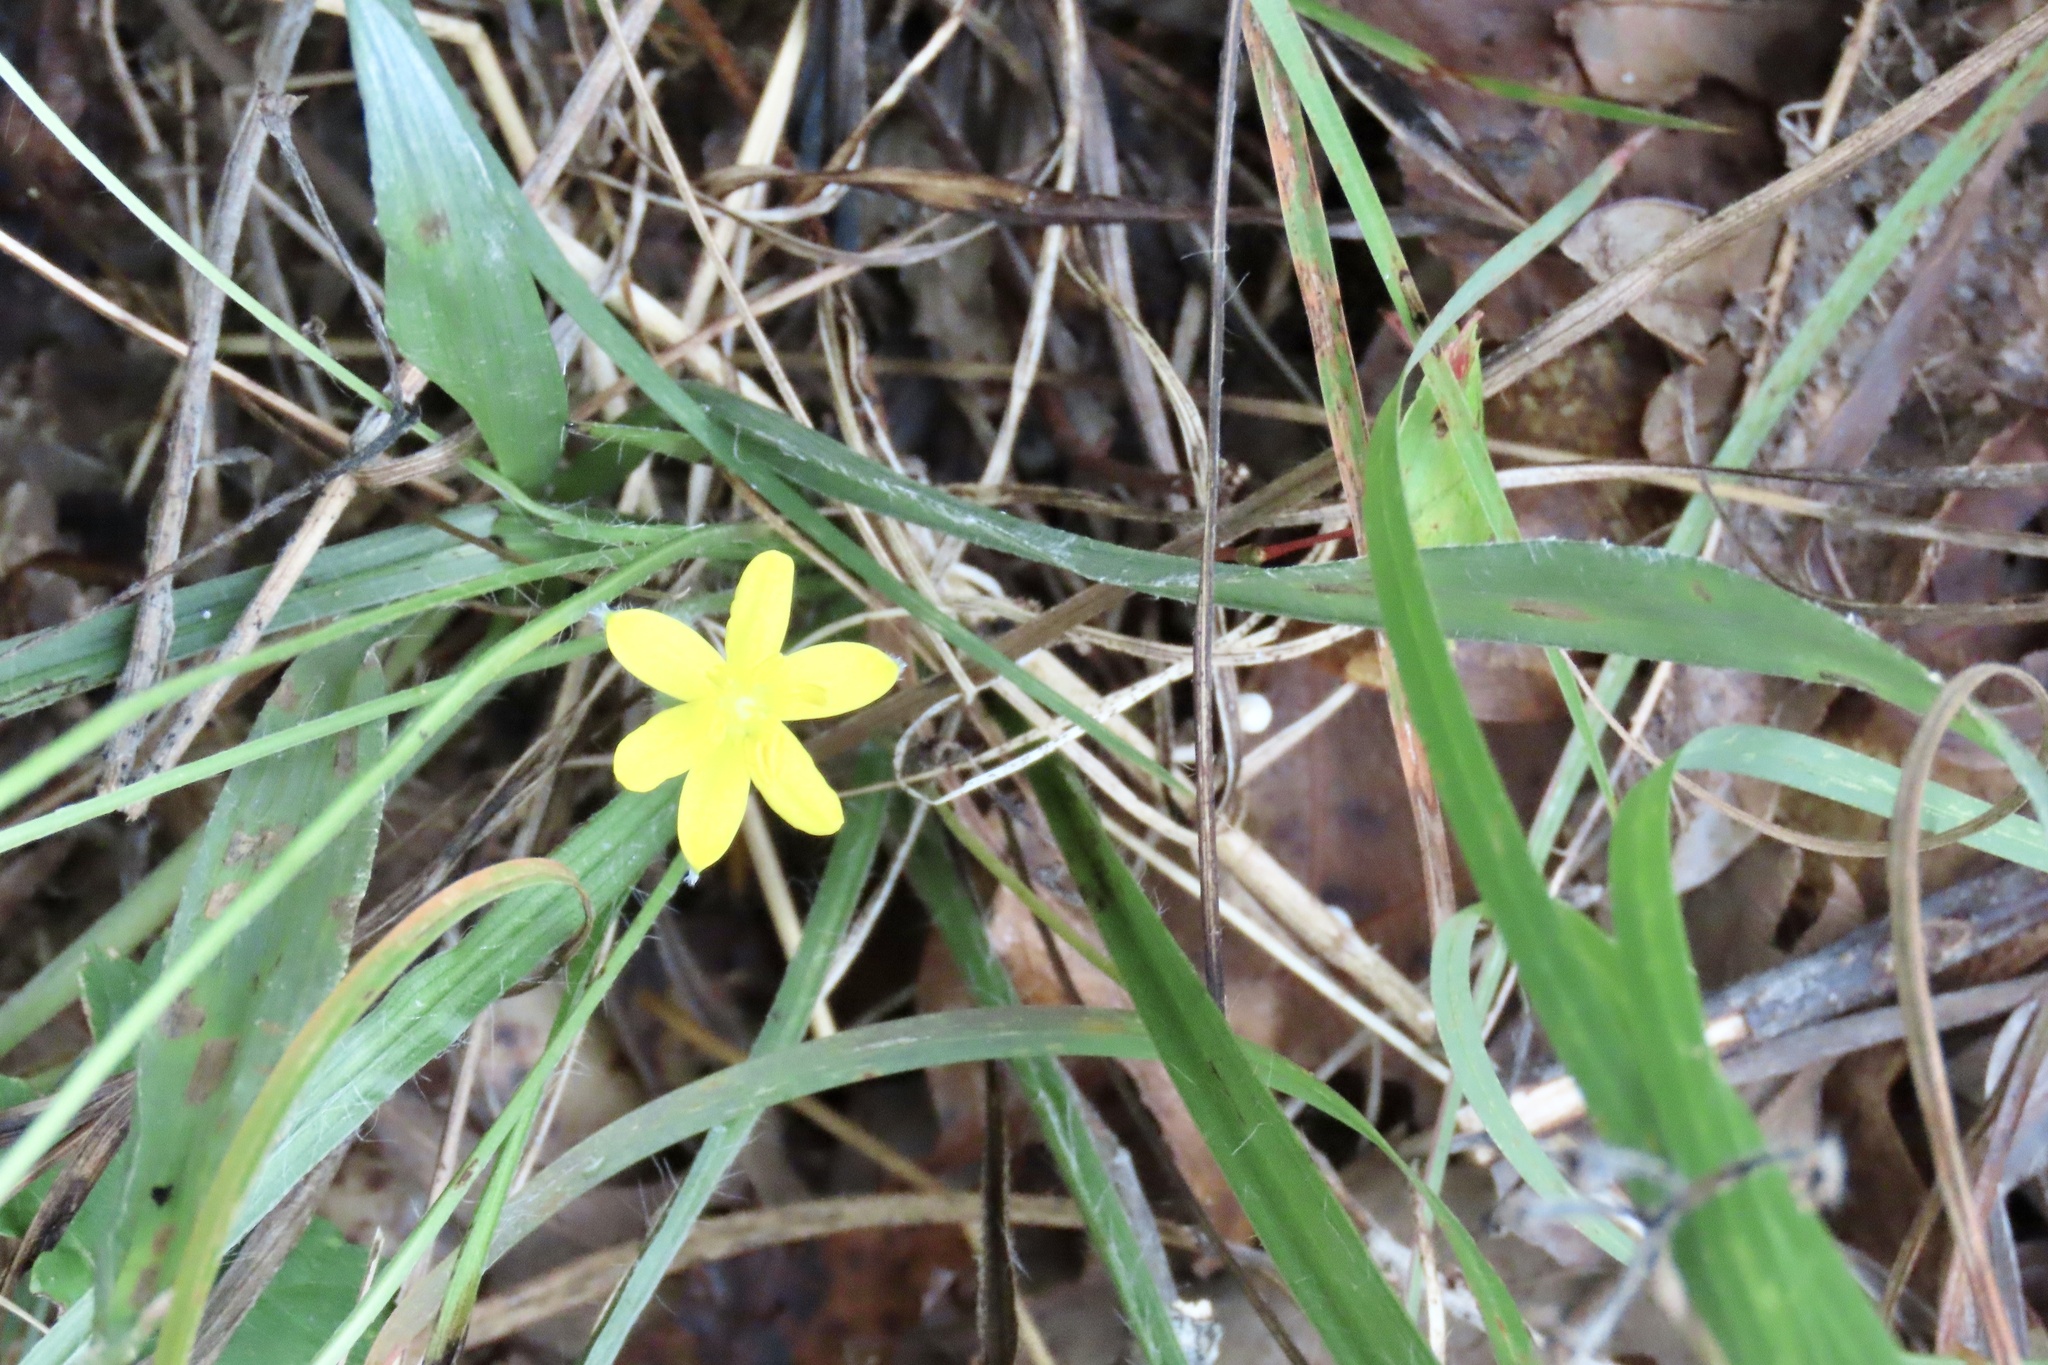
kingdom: Plantae
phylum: Tracheophyta
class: Liliopsida
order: Asparagales
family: Hypoxidaceae
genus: Hypoxis
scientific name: Hypoxis hirsuta
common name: Common goldstar
